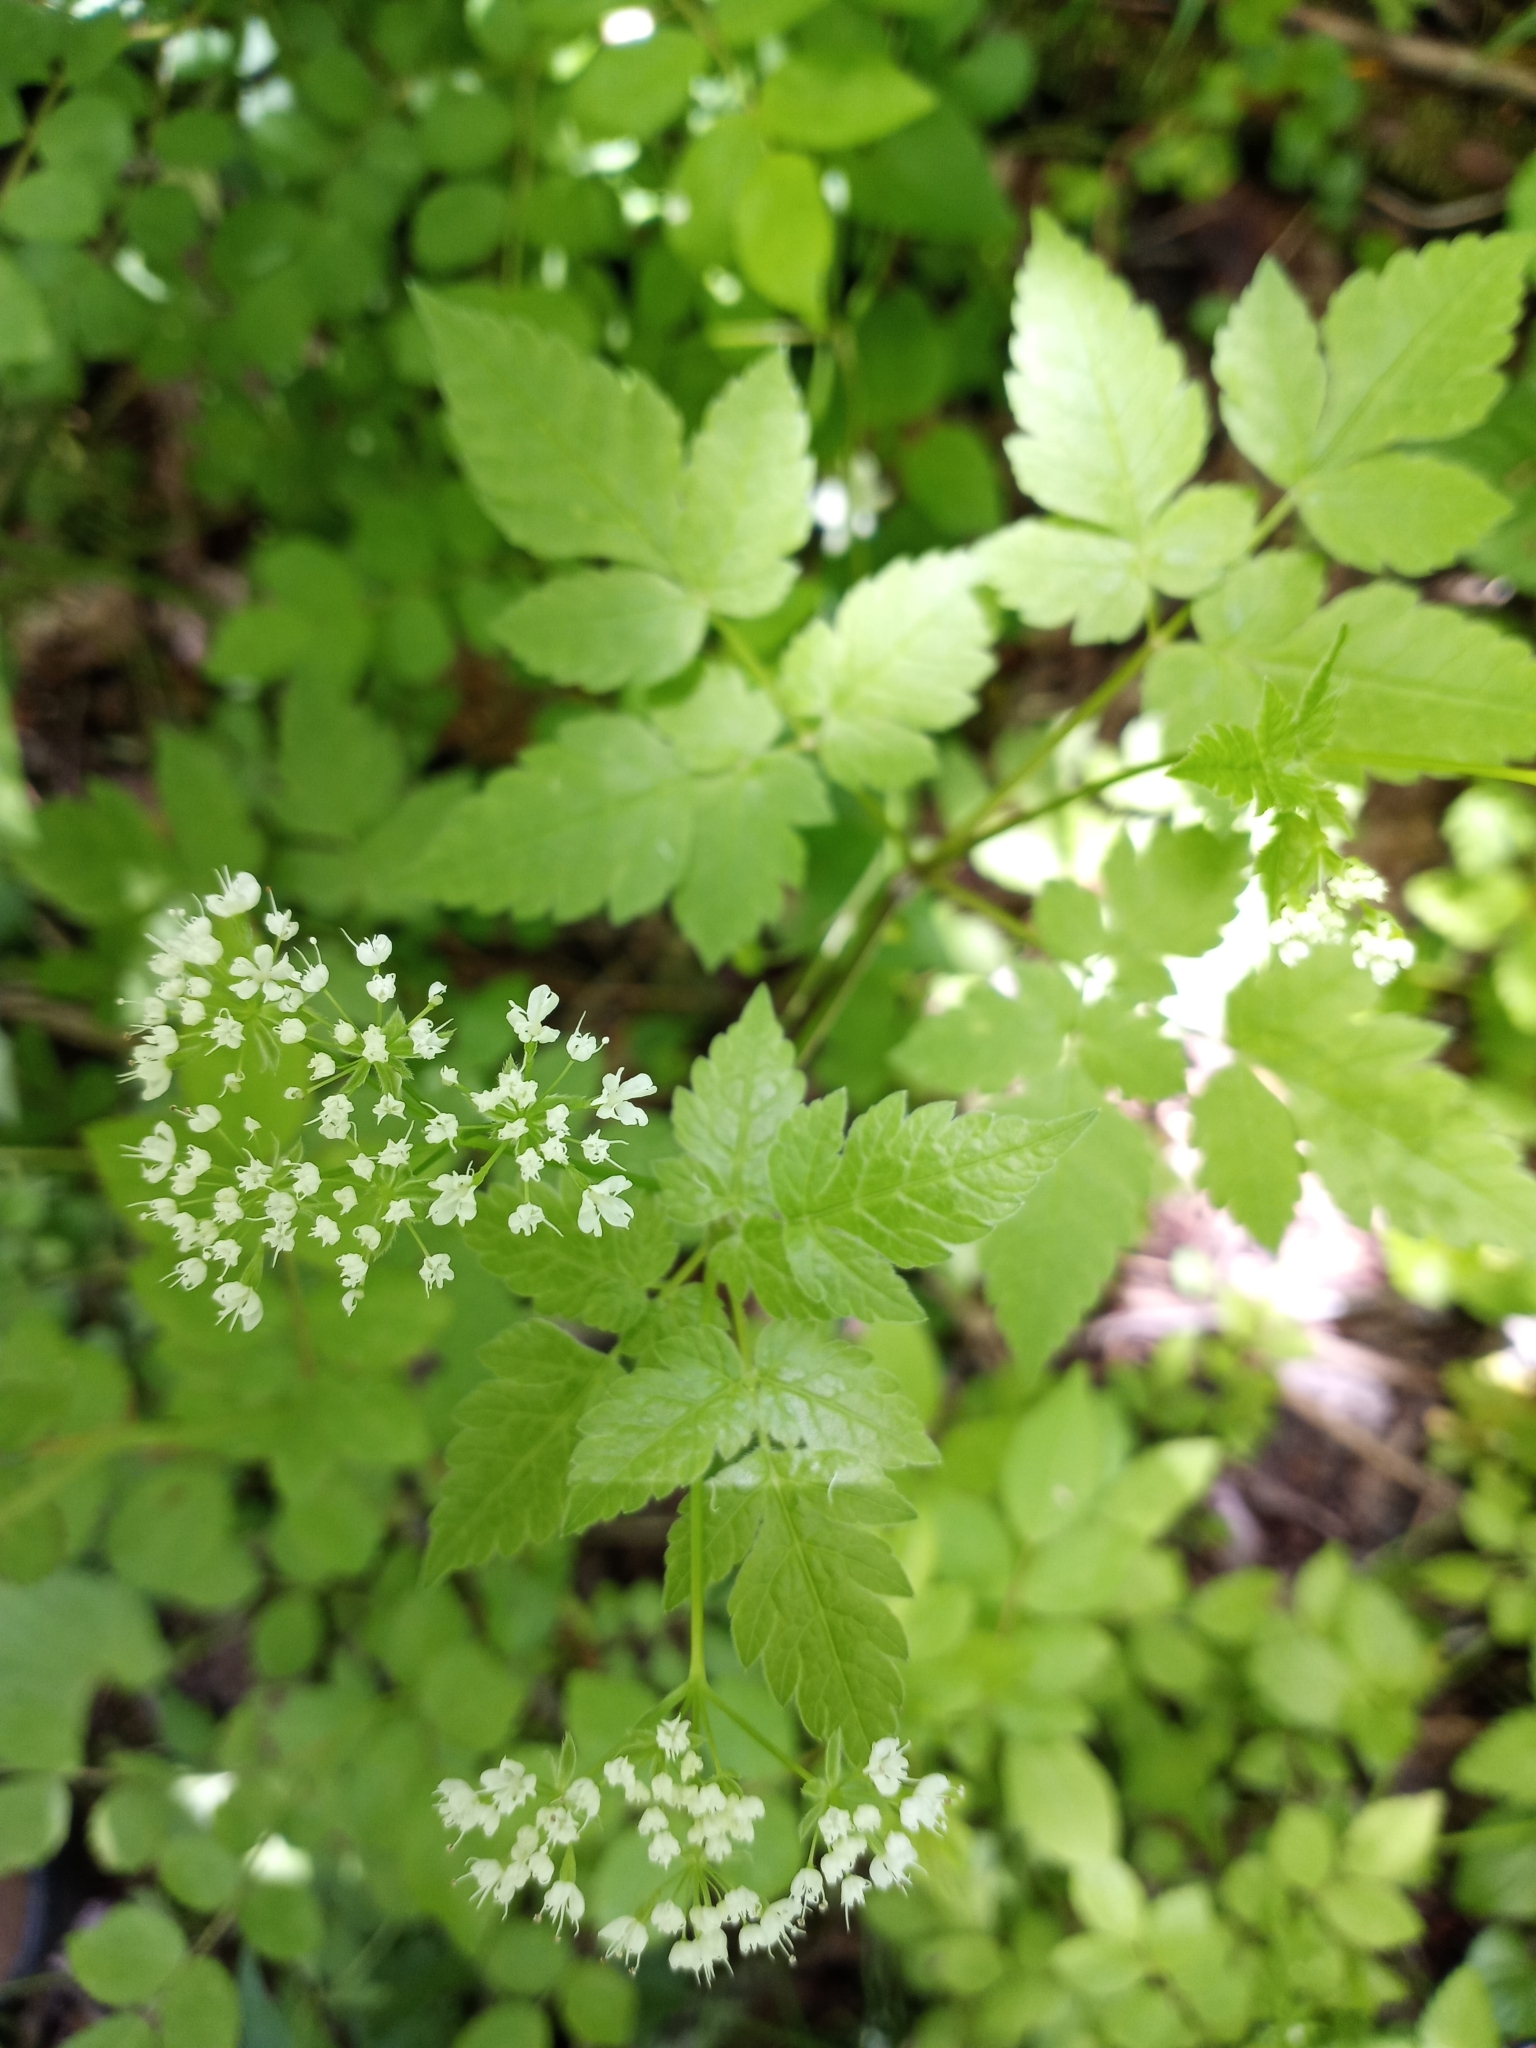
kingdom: Plantae
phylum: Tracheophyta
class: Magnoliopsida
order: Apiales
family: Apiaceae
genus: Osmorhiza
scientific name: Osmorhiza longistylis
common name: Smooth sweet cicely
